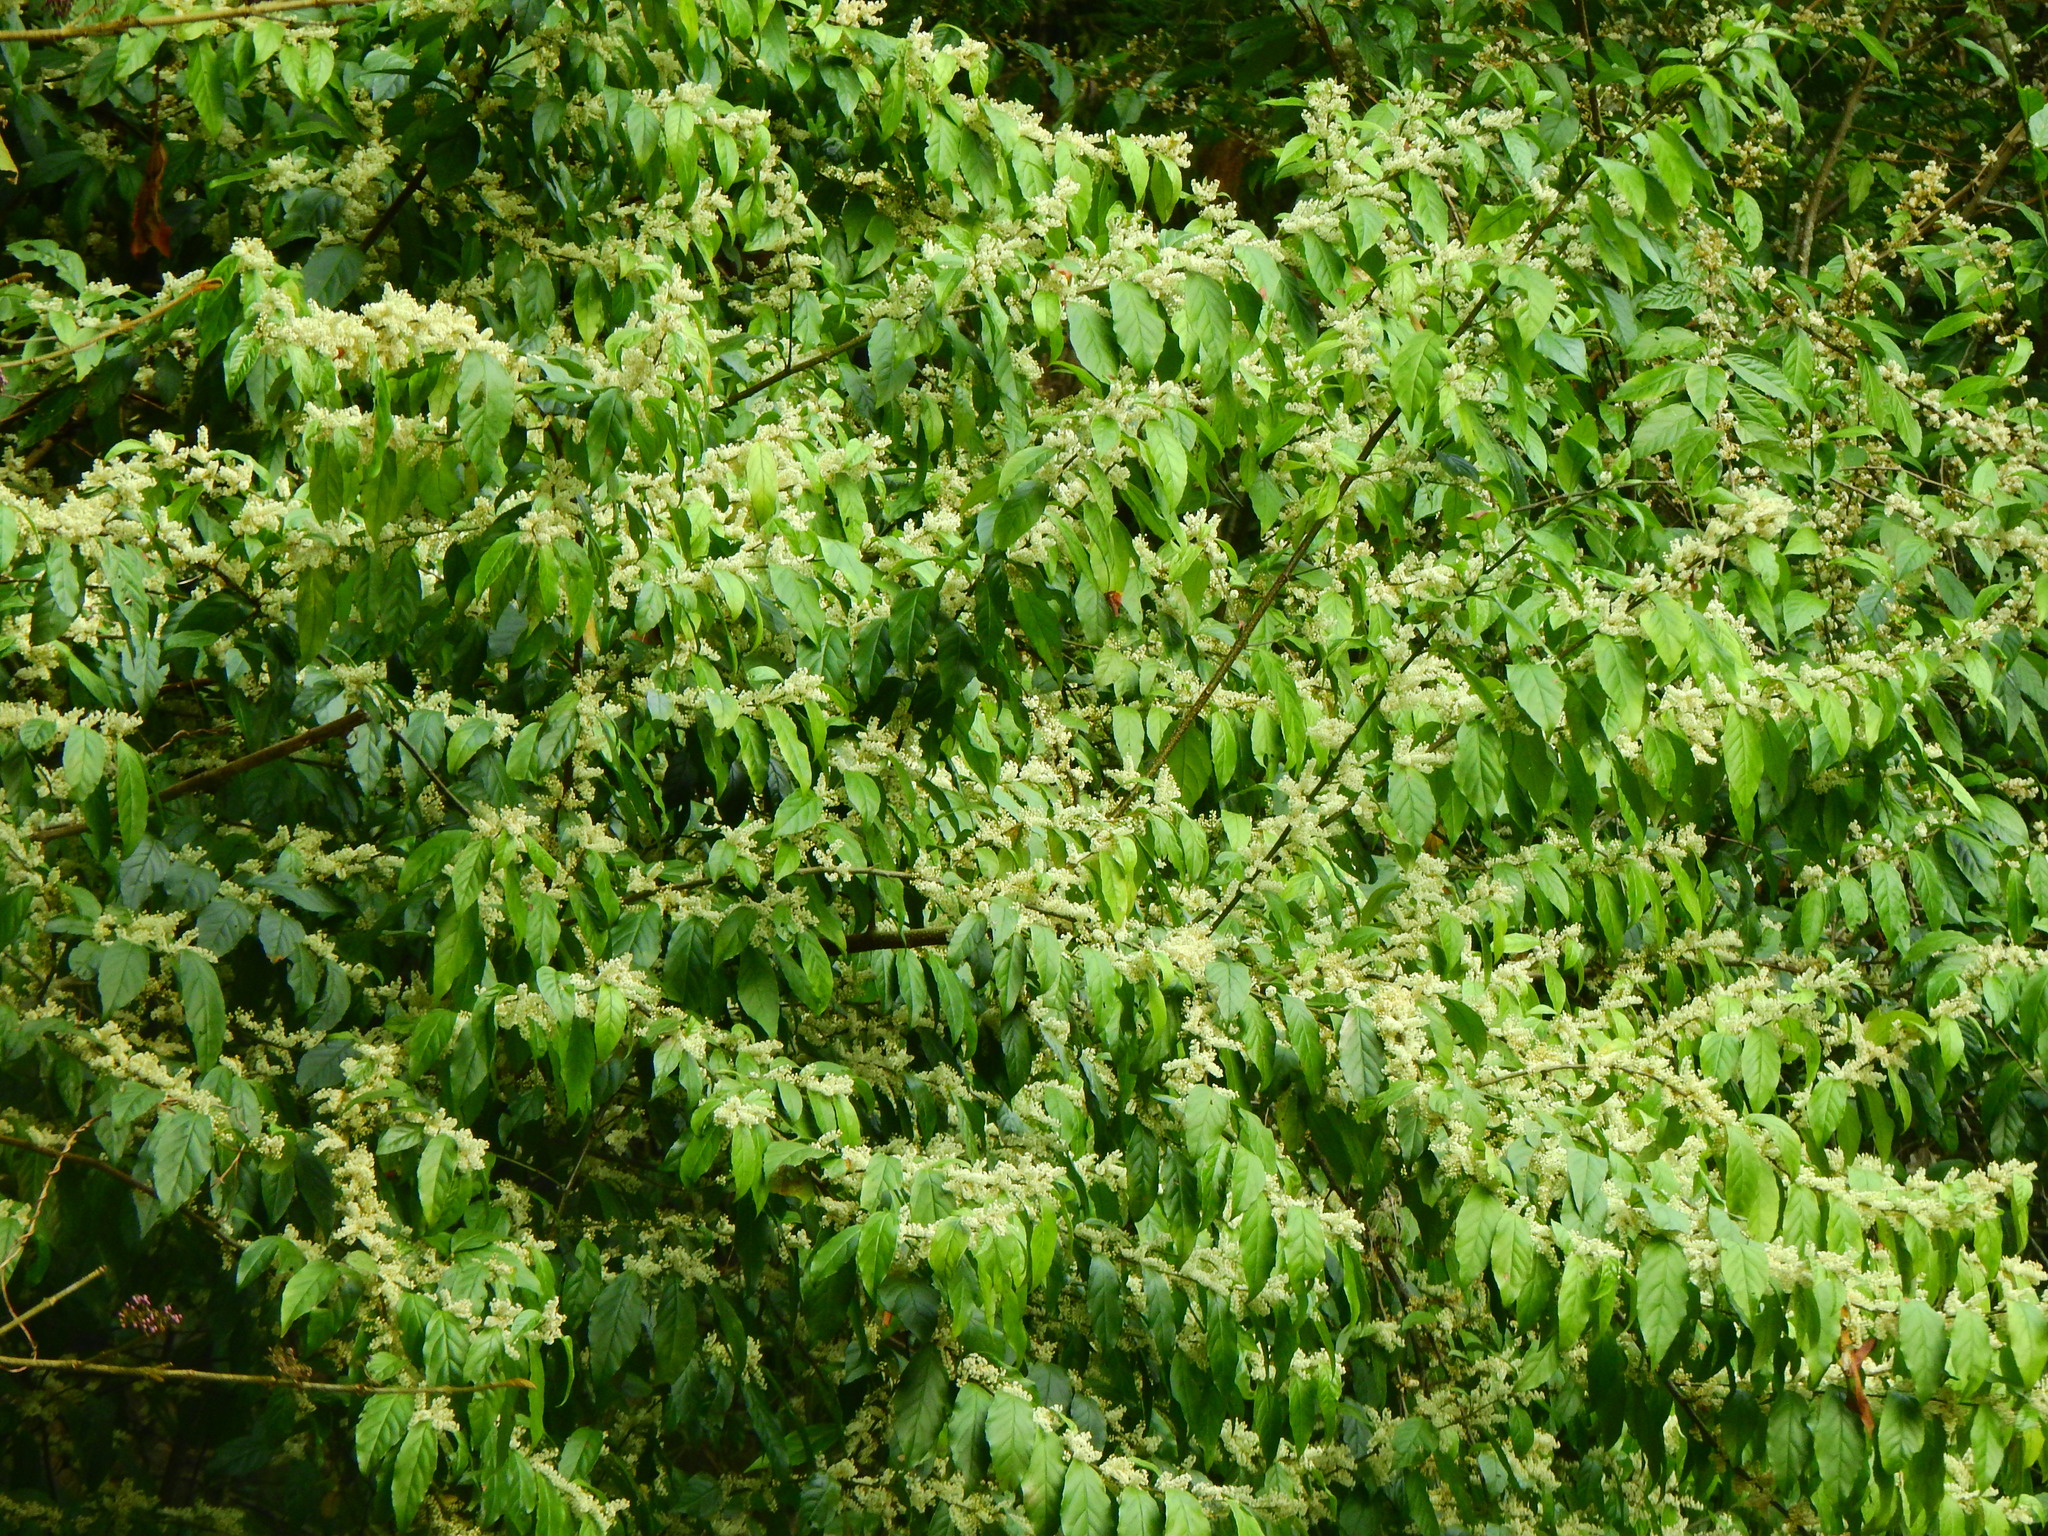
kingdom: Plantae
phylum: Tracheophyta
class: Magnoliopsida
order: Ericales
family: Primulaceae
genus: Maesa
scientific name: Maesa perlaria
